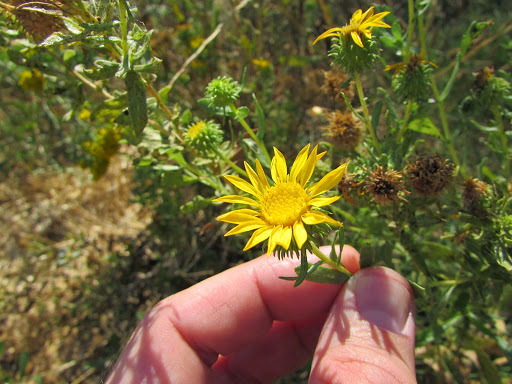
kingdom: Plantae
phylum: Tracheophyta
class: Magnoliopsida
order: Asterales
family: Asteraceae
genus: Grindelia
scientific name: Grindelia hirsutula
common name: Hairy gumweed
